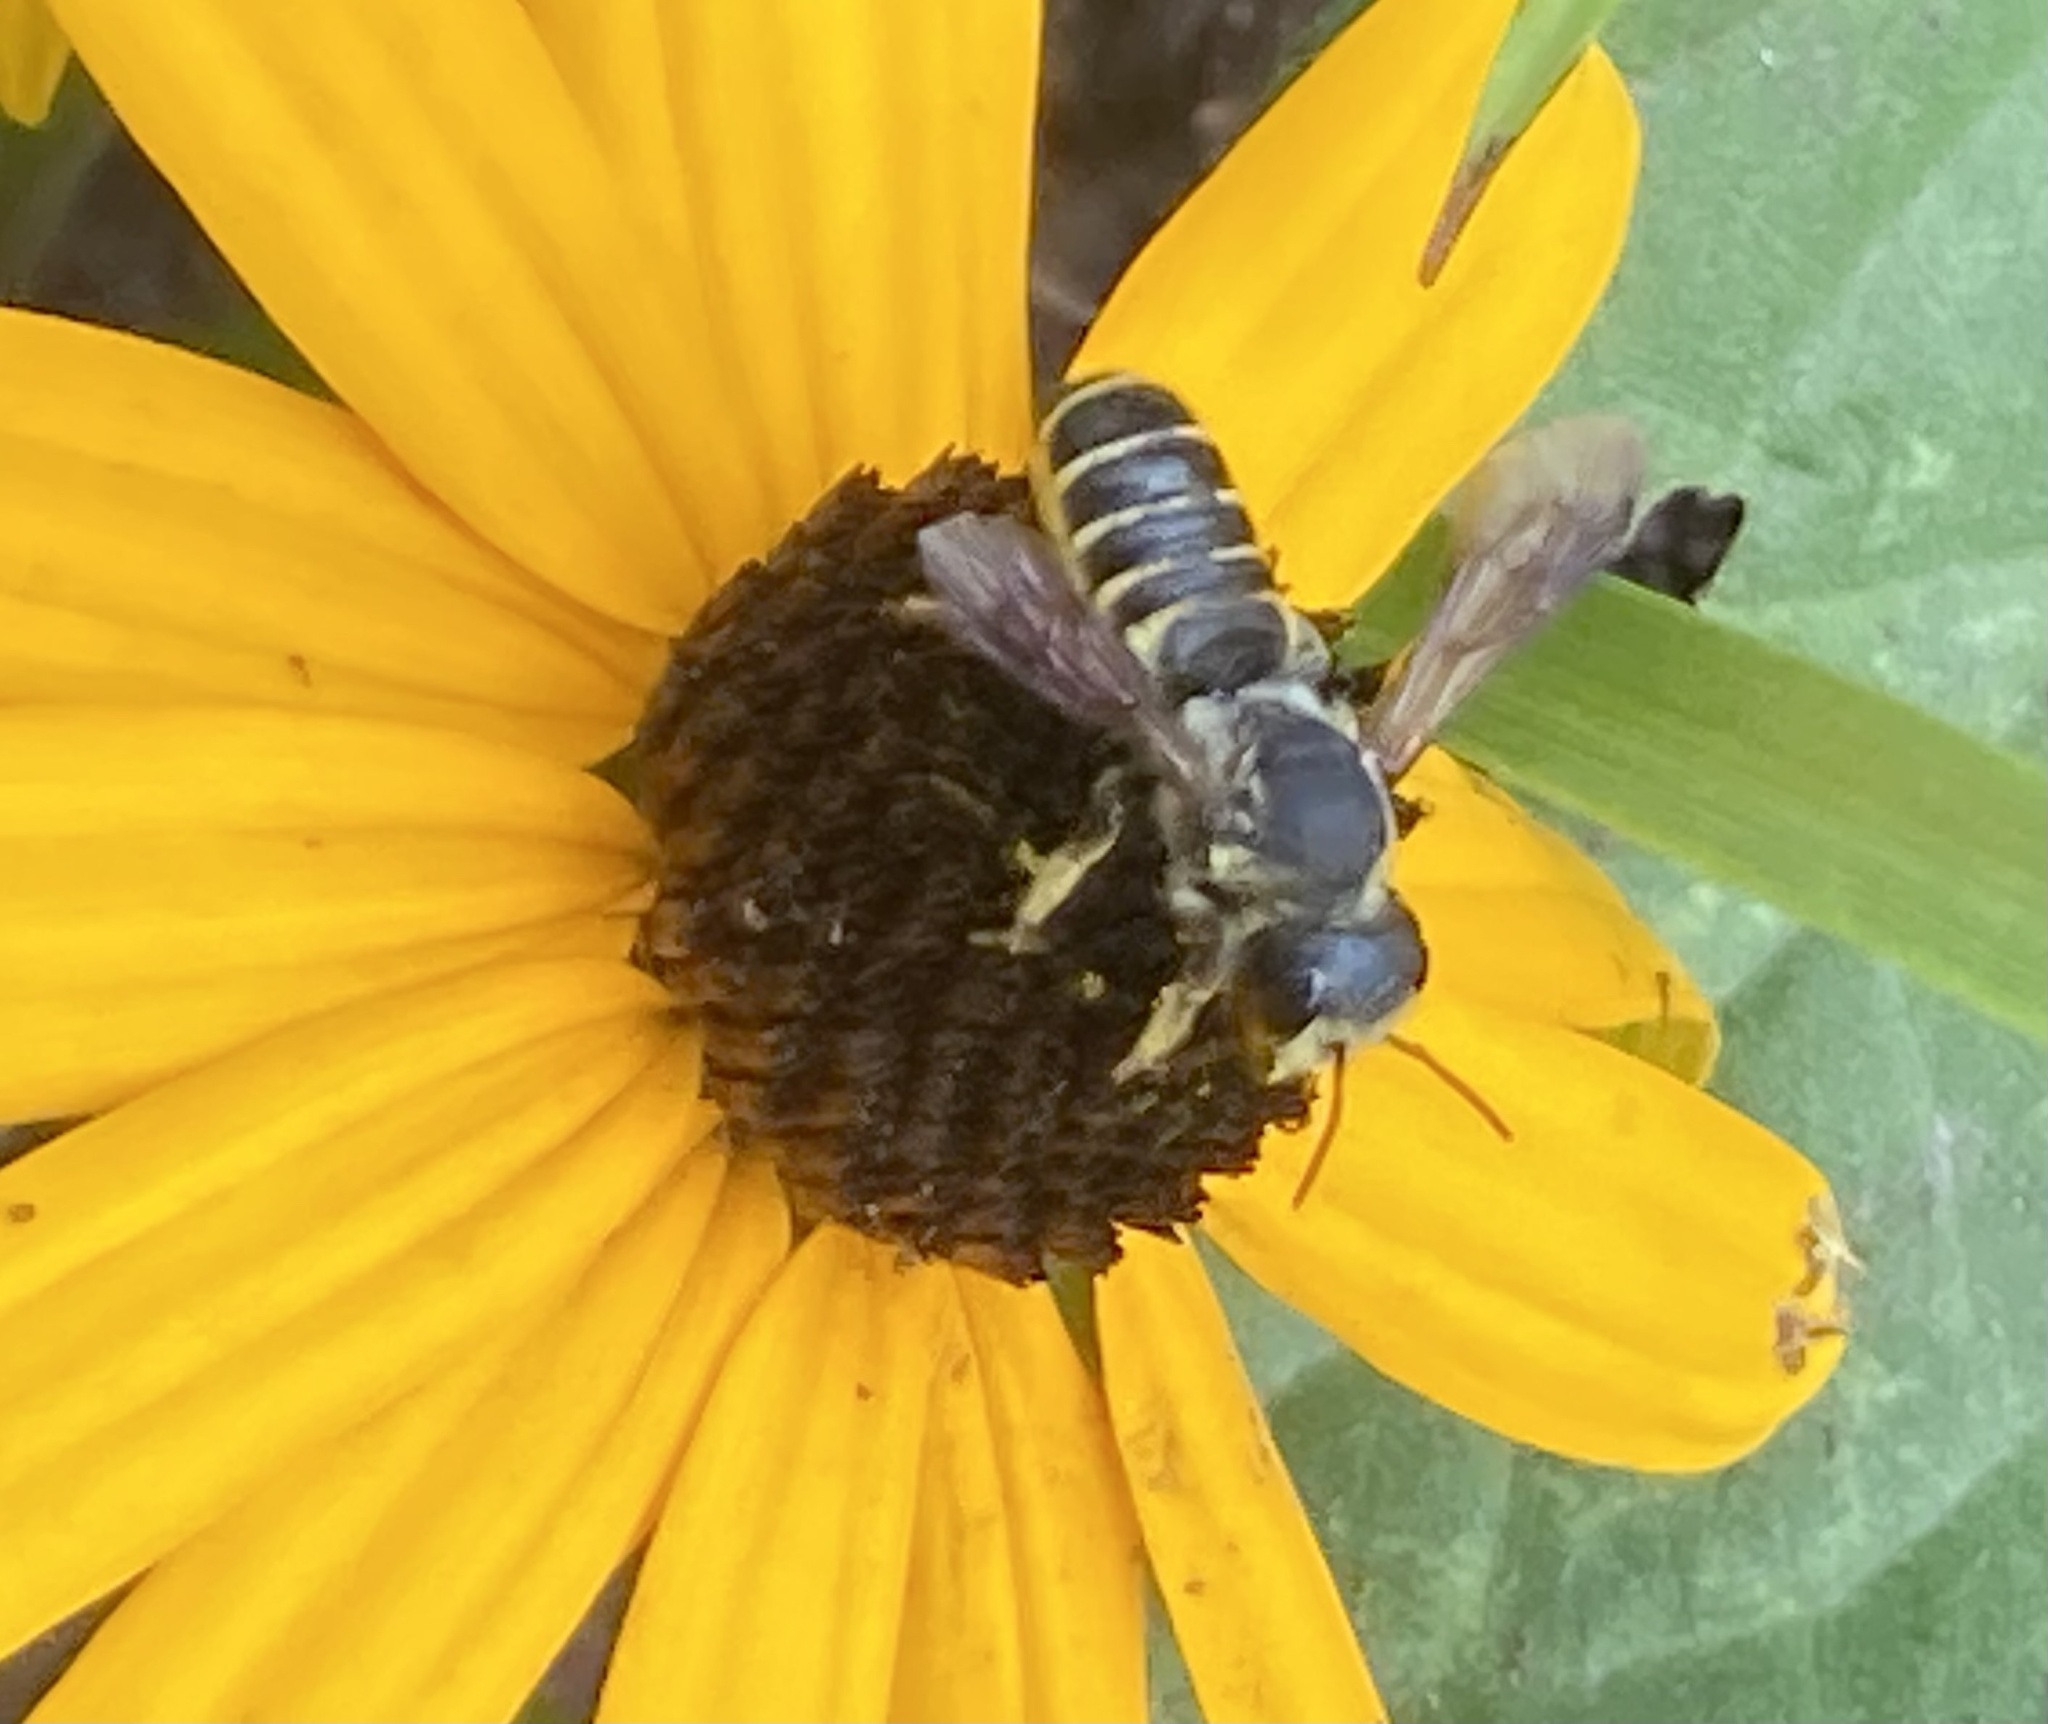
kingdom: Animalia
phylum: Arthropoda
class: Insecta
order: Hymenoptera
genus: Sayapis
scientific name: Sayapis
